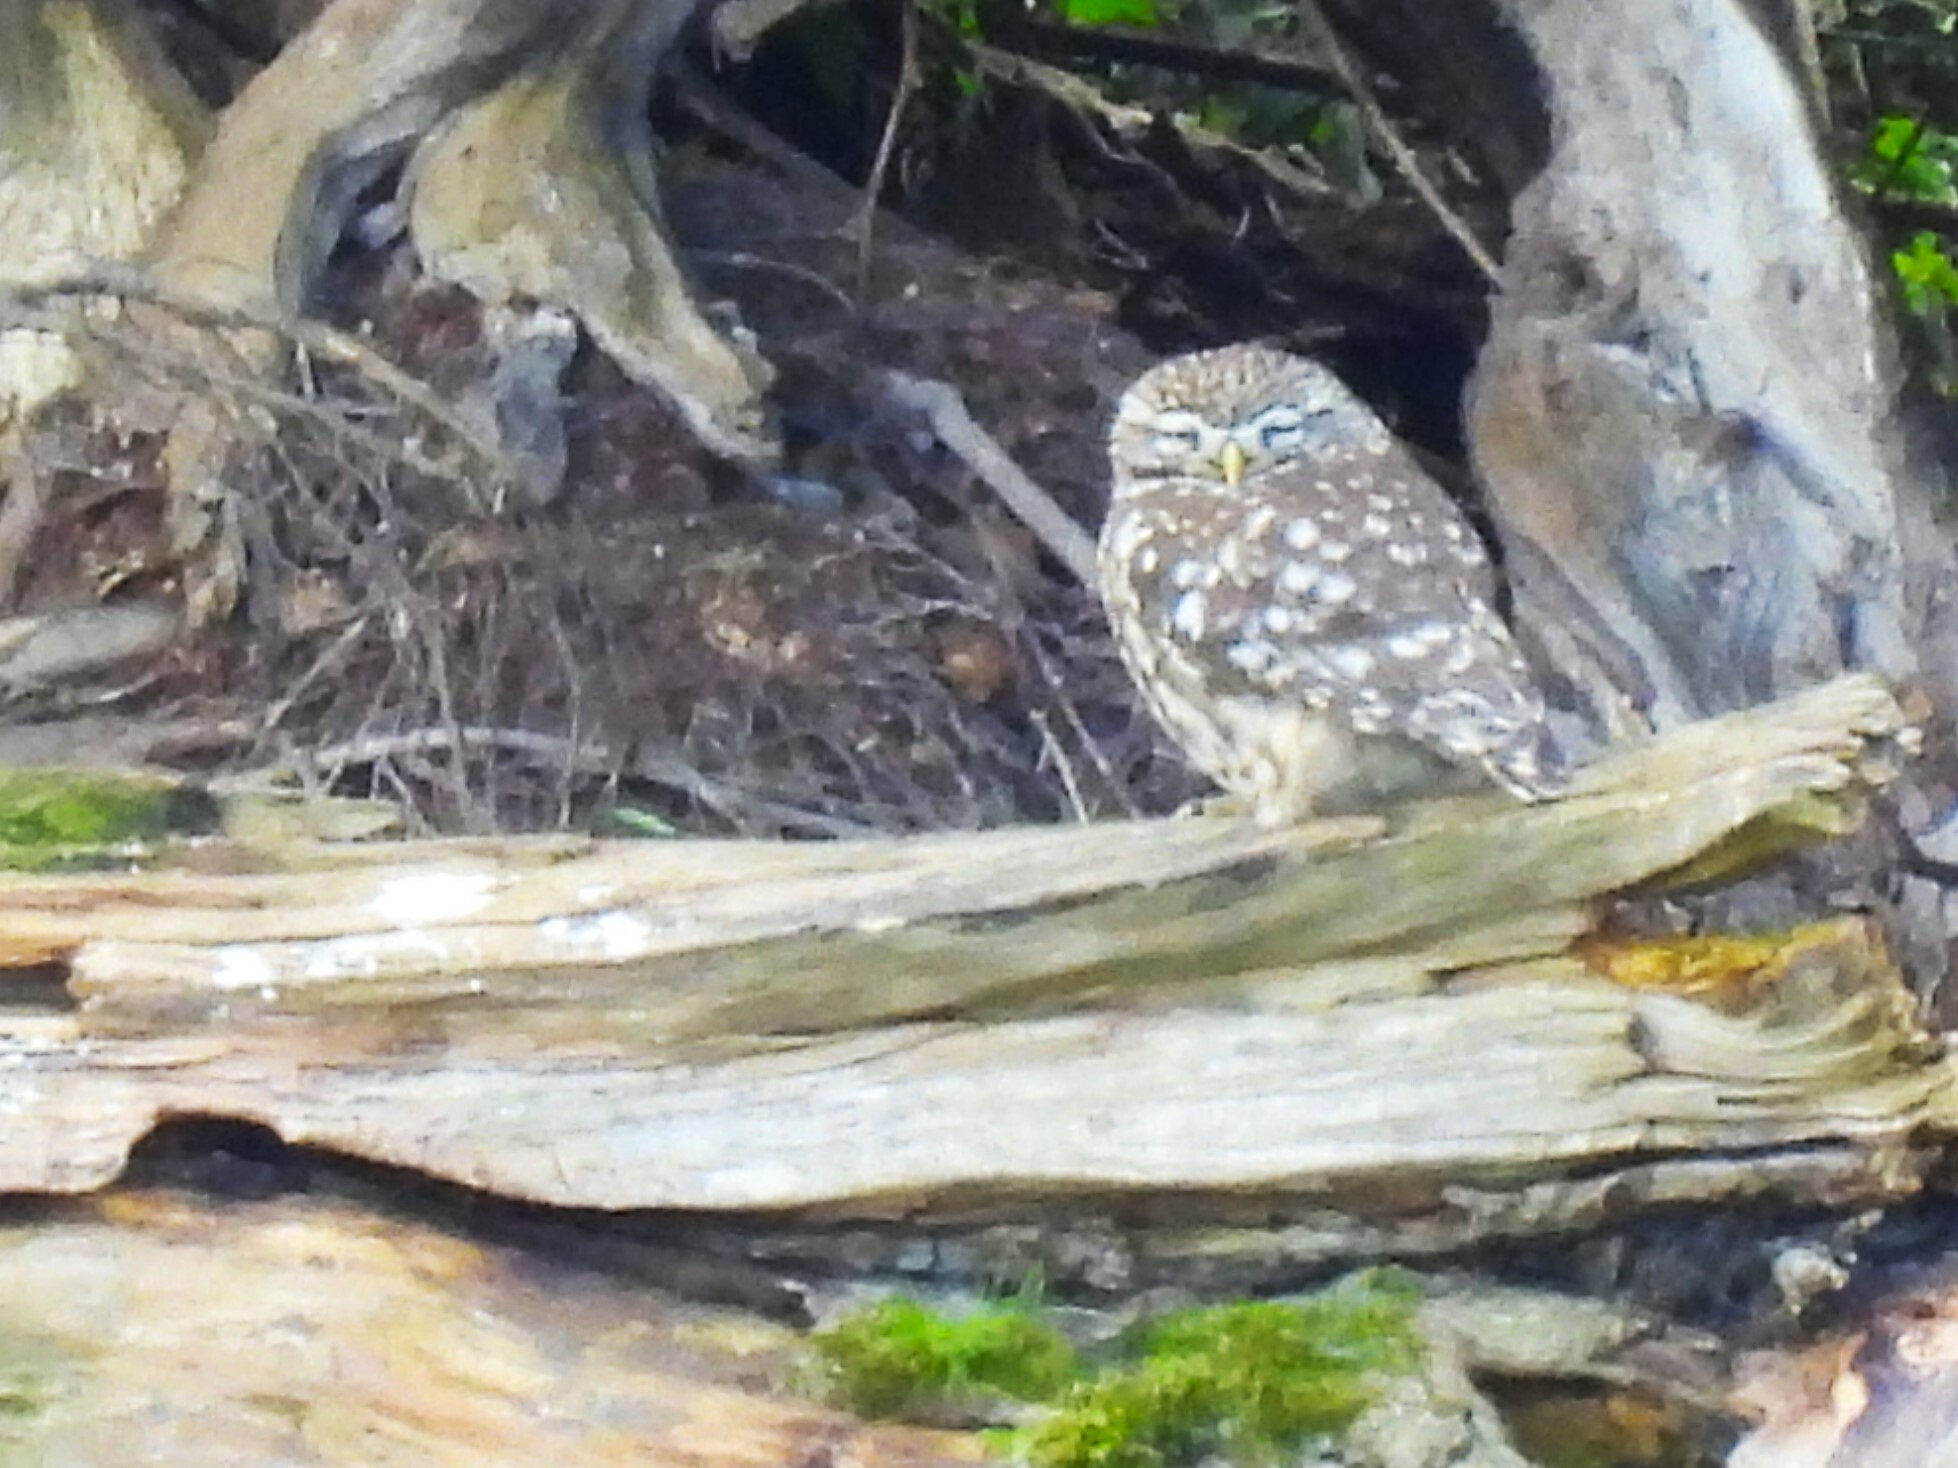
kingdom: Animalia
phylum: Chordata
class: Aves
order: Strigiformes
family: Strigidae
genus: Athene
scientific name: Athene noctua
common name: Little owl
